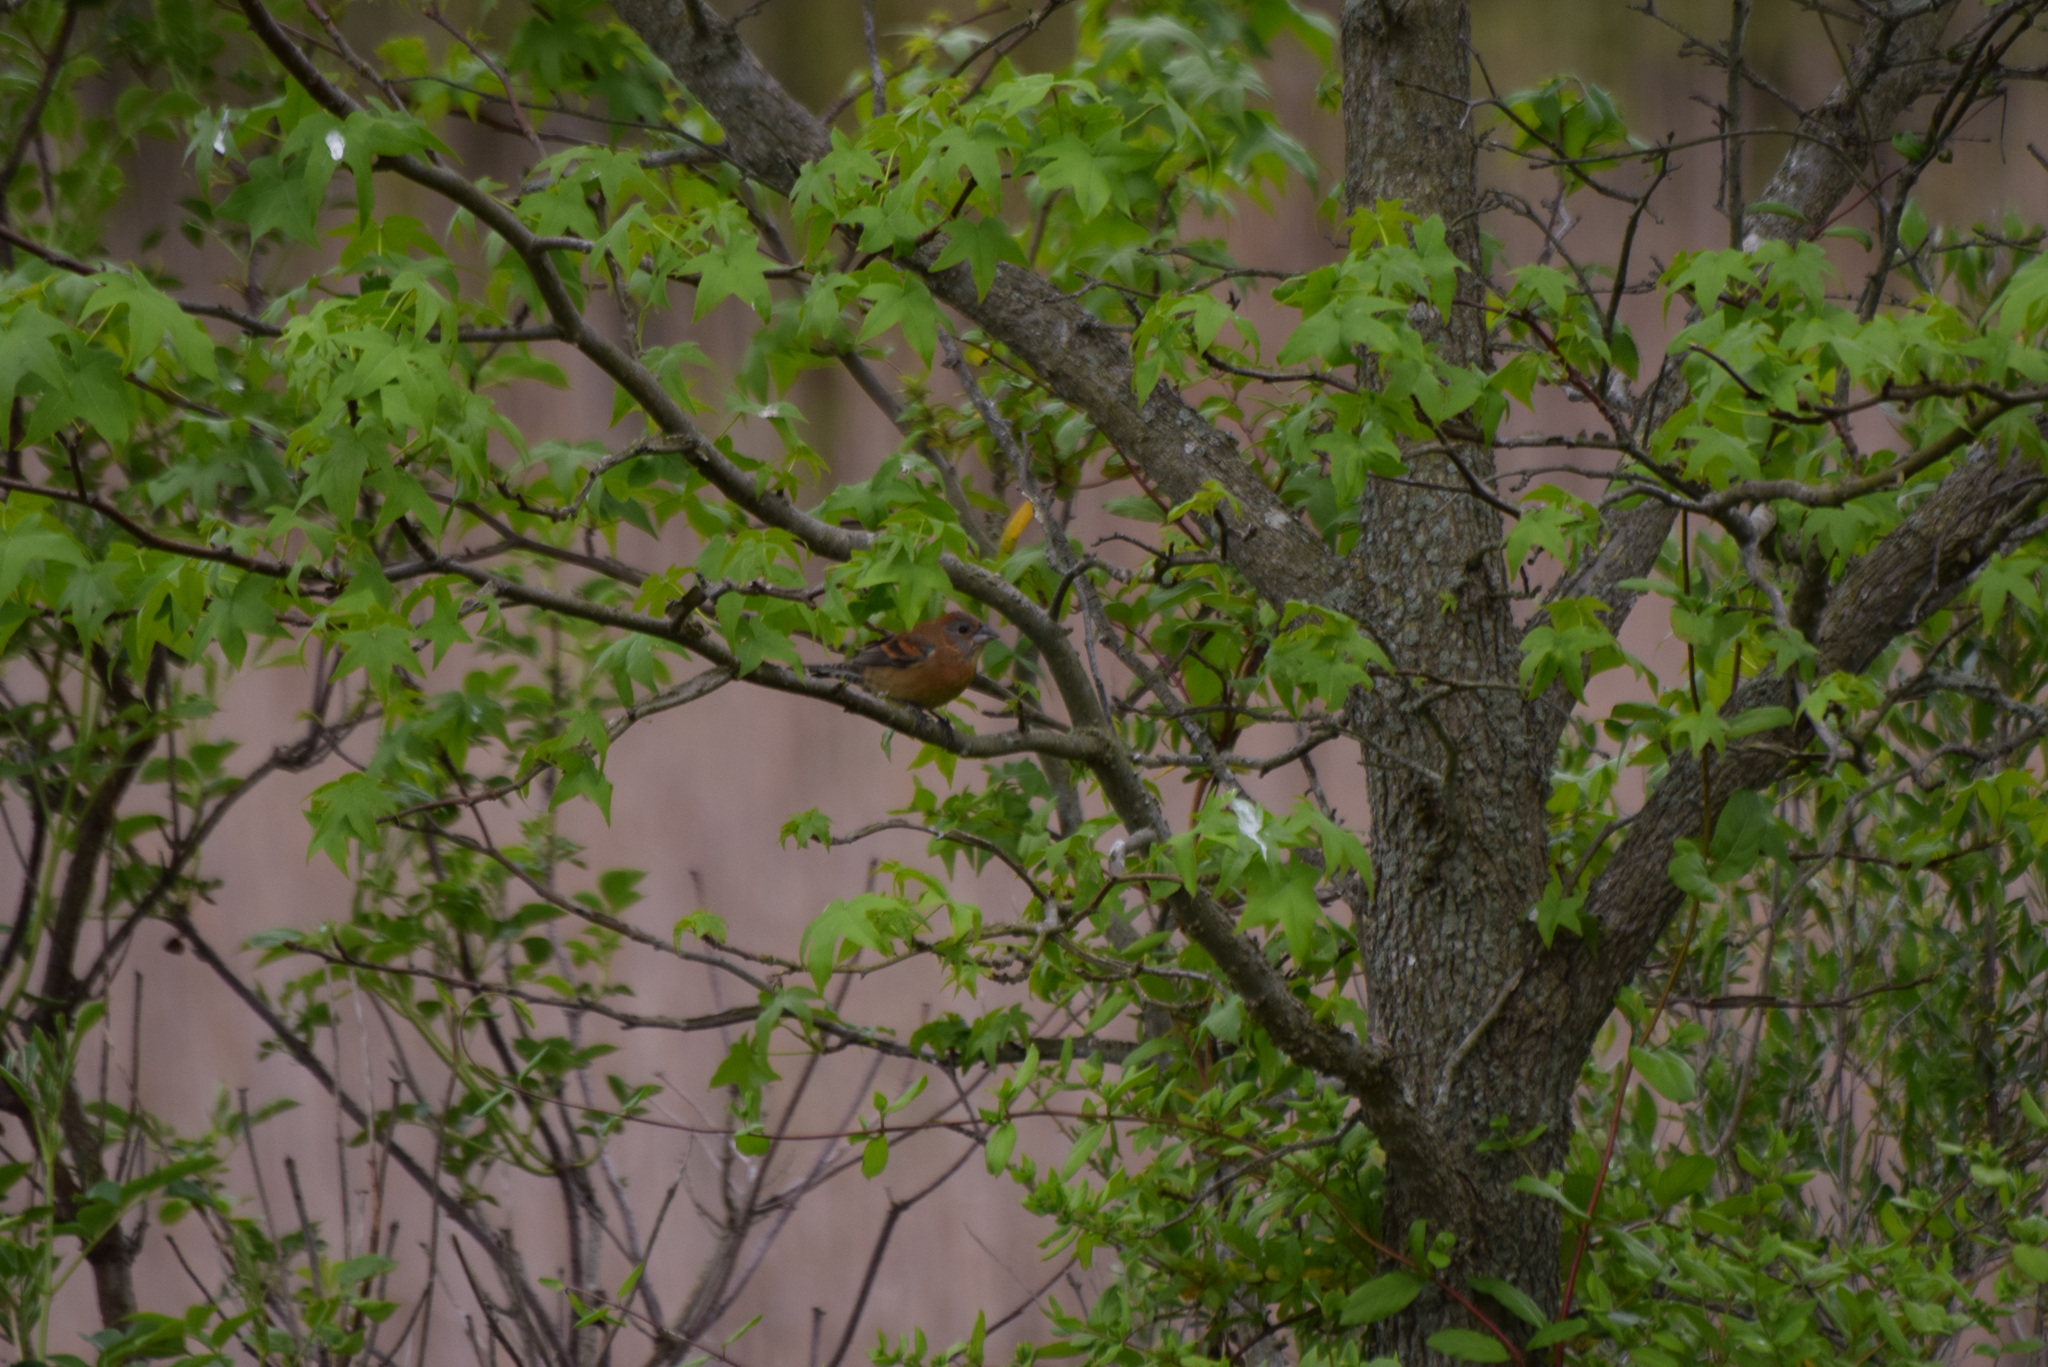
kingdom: Animalia
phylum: Chordata
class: Aves
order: Passeriformes
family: Cardinalidae
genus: Passerina
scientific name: Passerina caerulea
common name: Blue grosbeak
